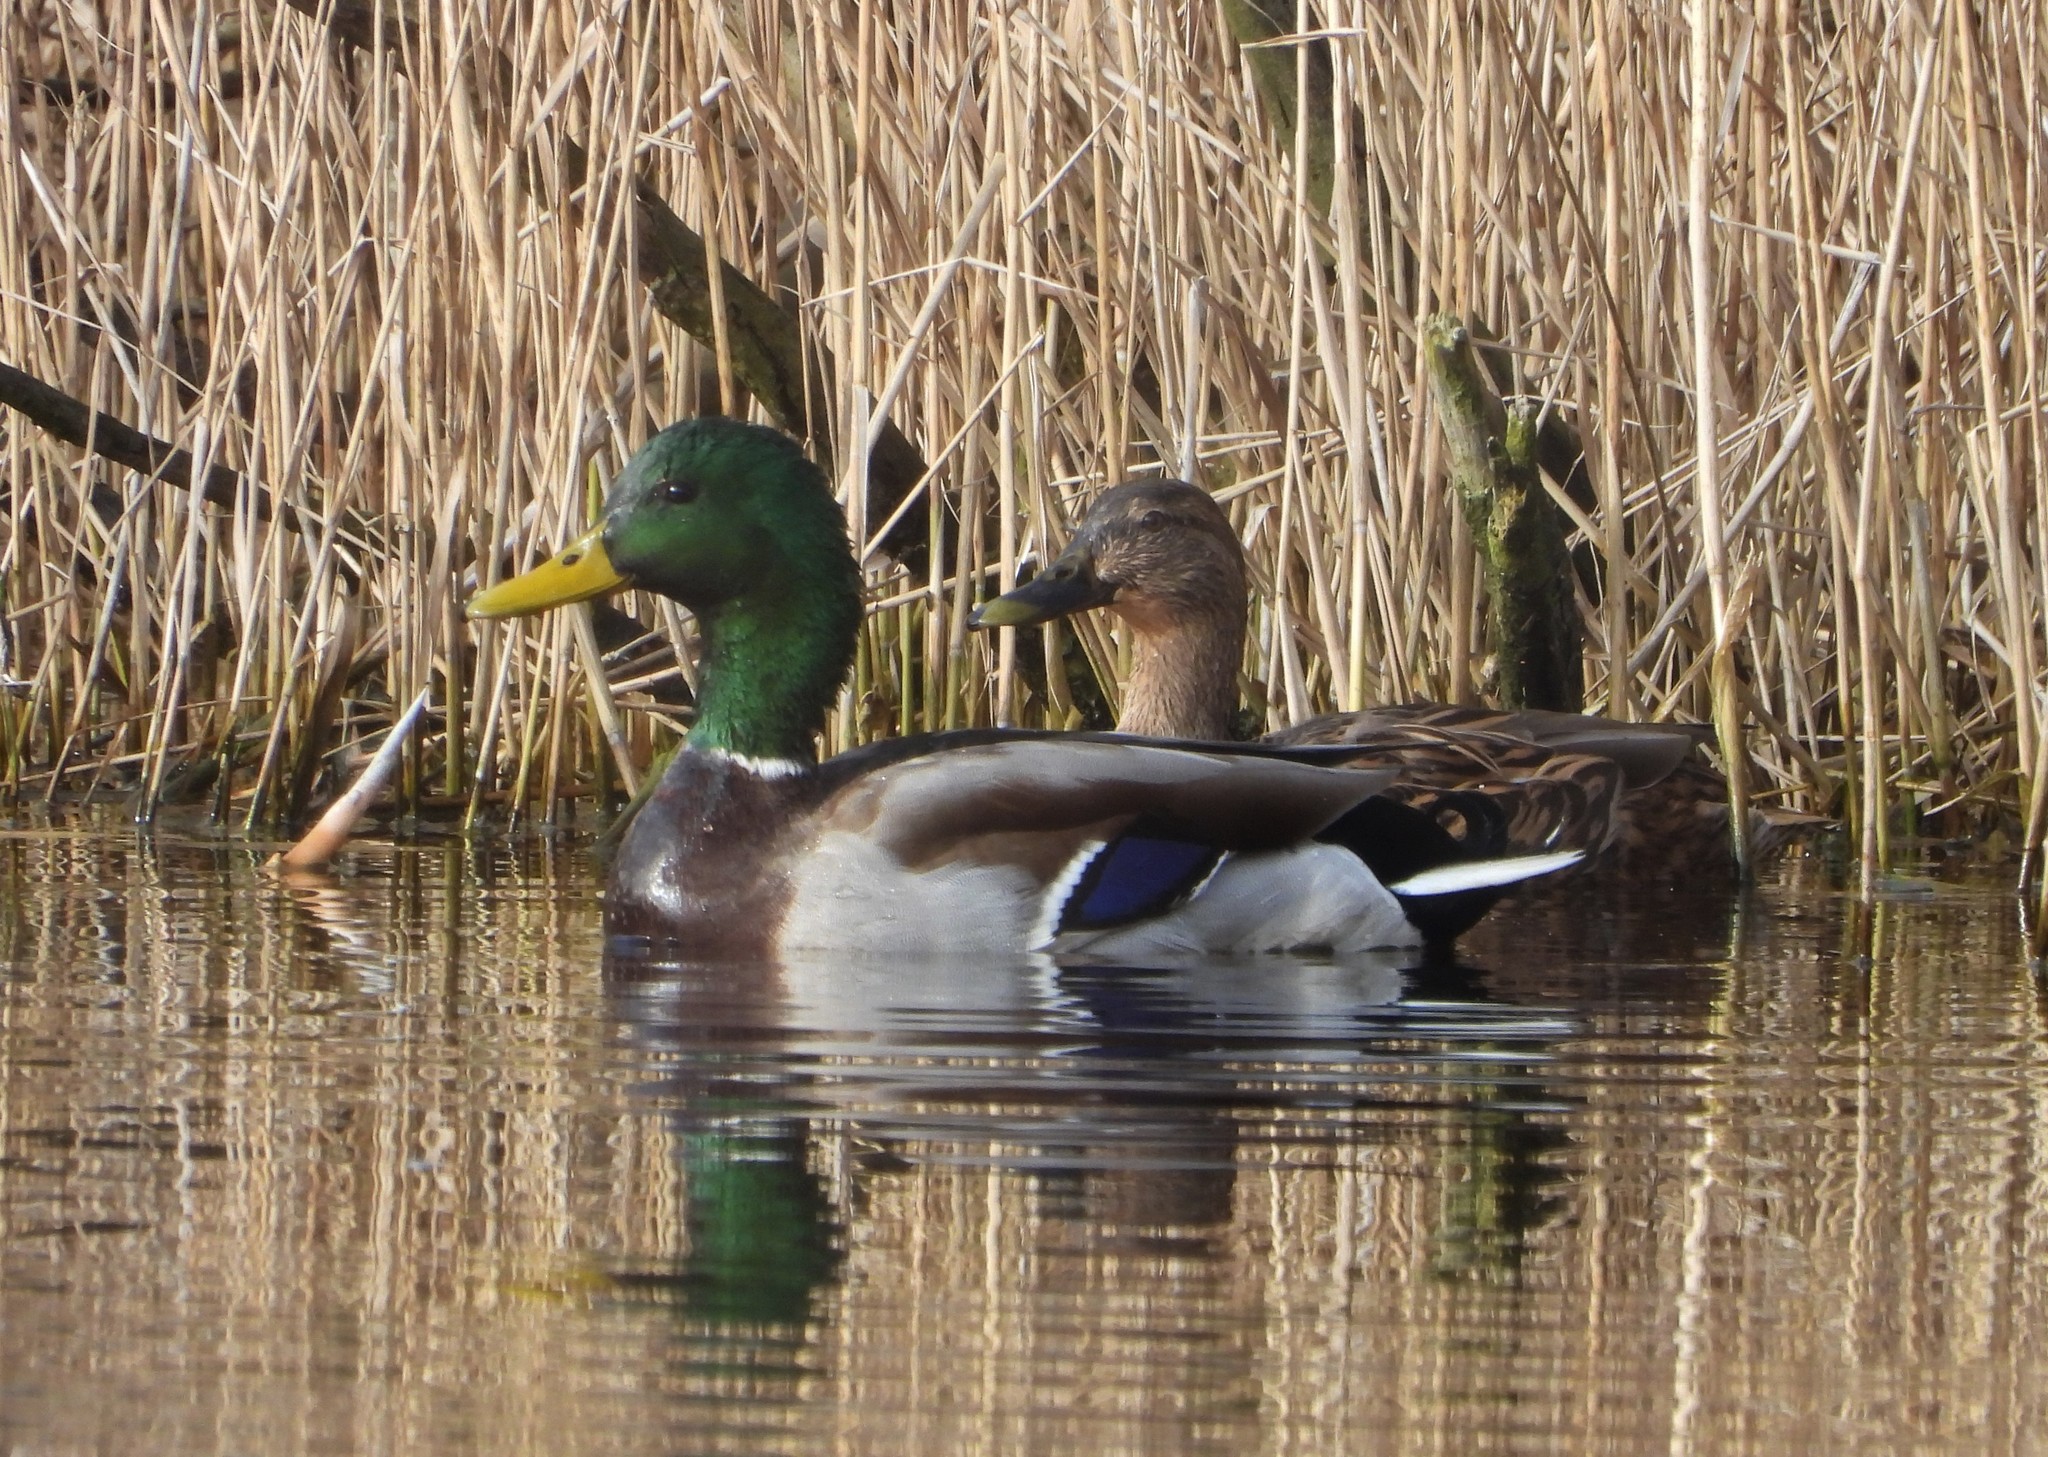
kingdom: Animalia
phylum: Chordata
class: Aves
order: Anseriformes
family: Anatidae
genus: Anas
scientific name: Anas platyrhynchos
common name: Mallard
